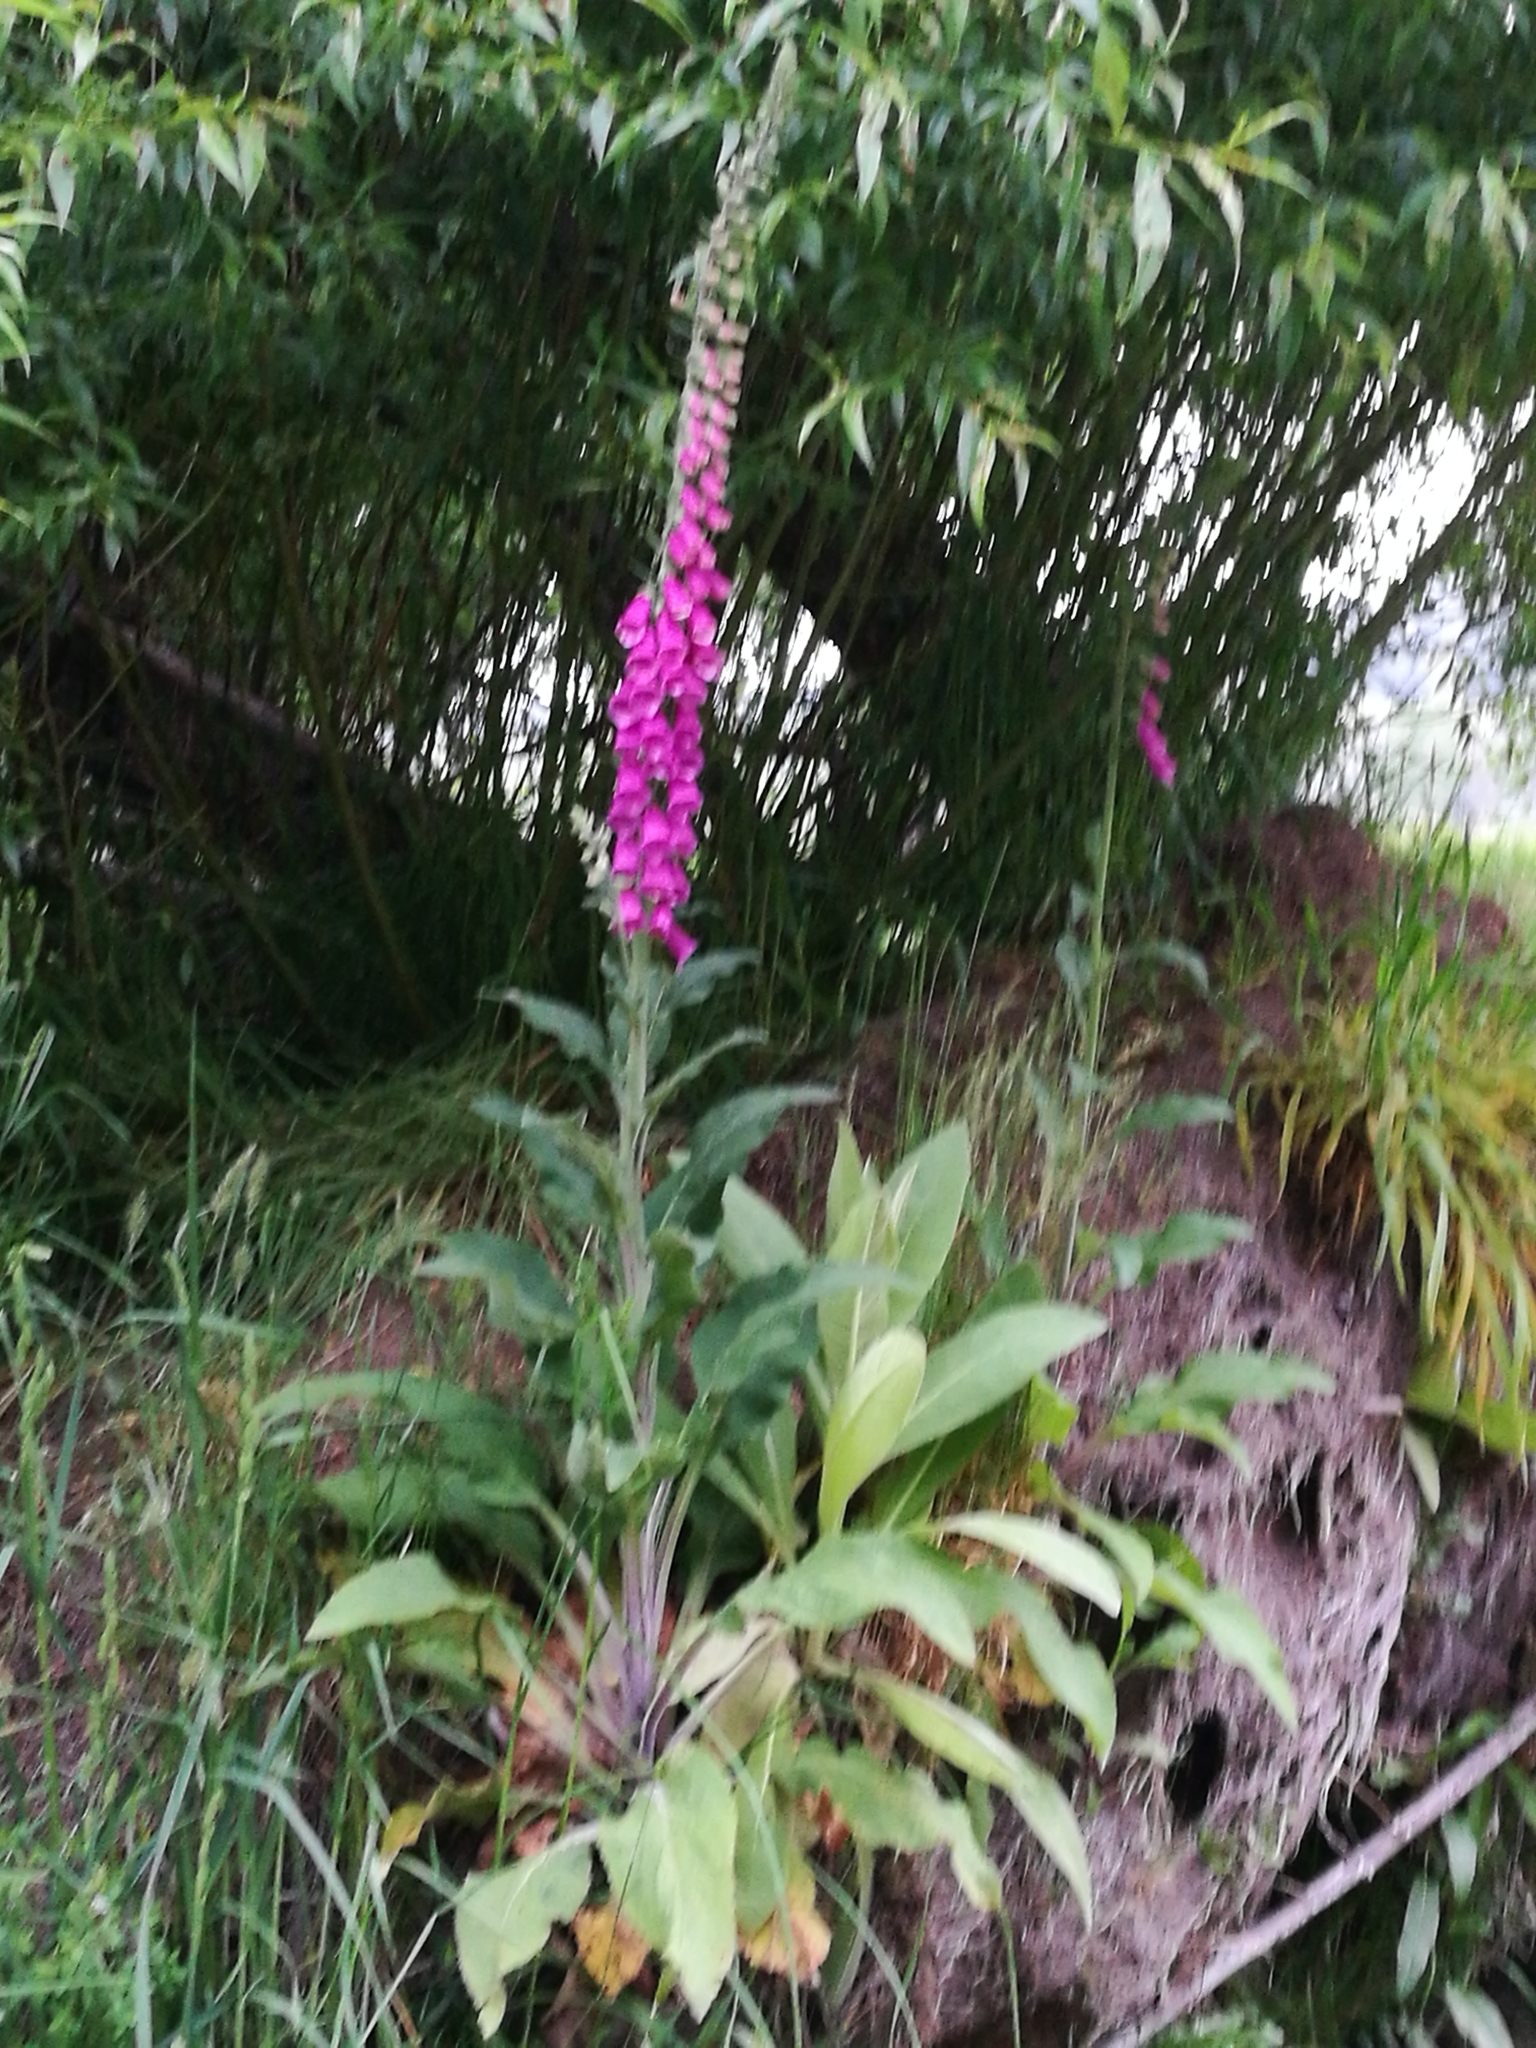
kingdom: Plantae
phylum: Tracheophyta
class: Magnoliopsida
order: Lamiales
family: Plantaginaceae
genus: Digitalis
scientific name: Digitalis purpurea
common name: Foxglove
